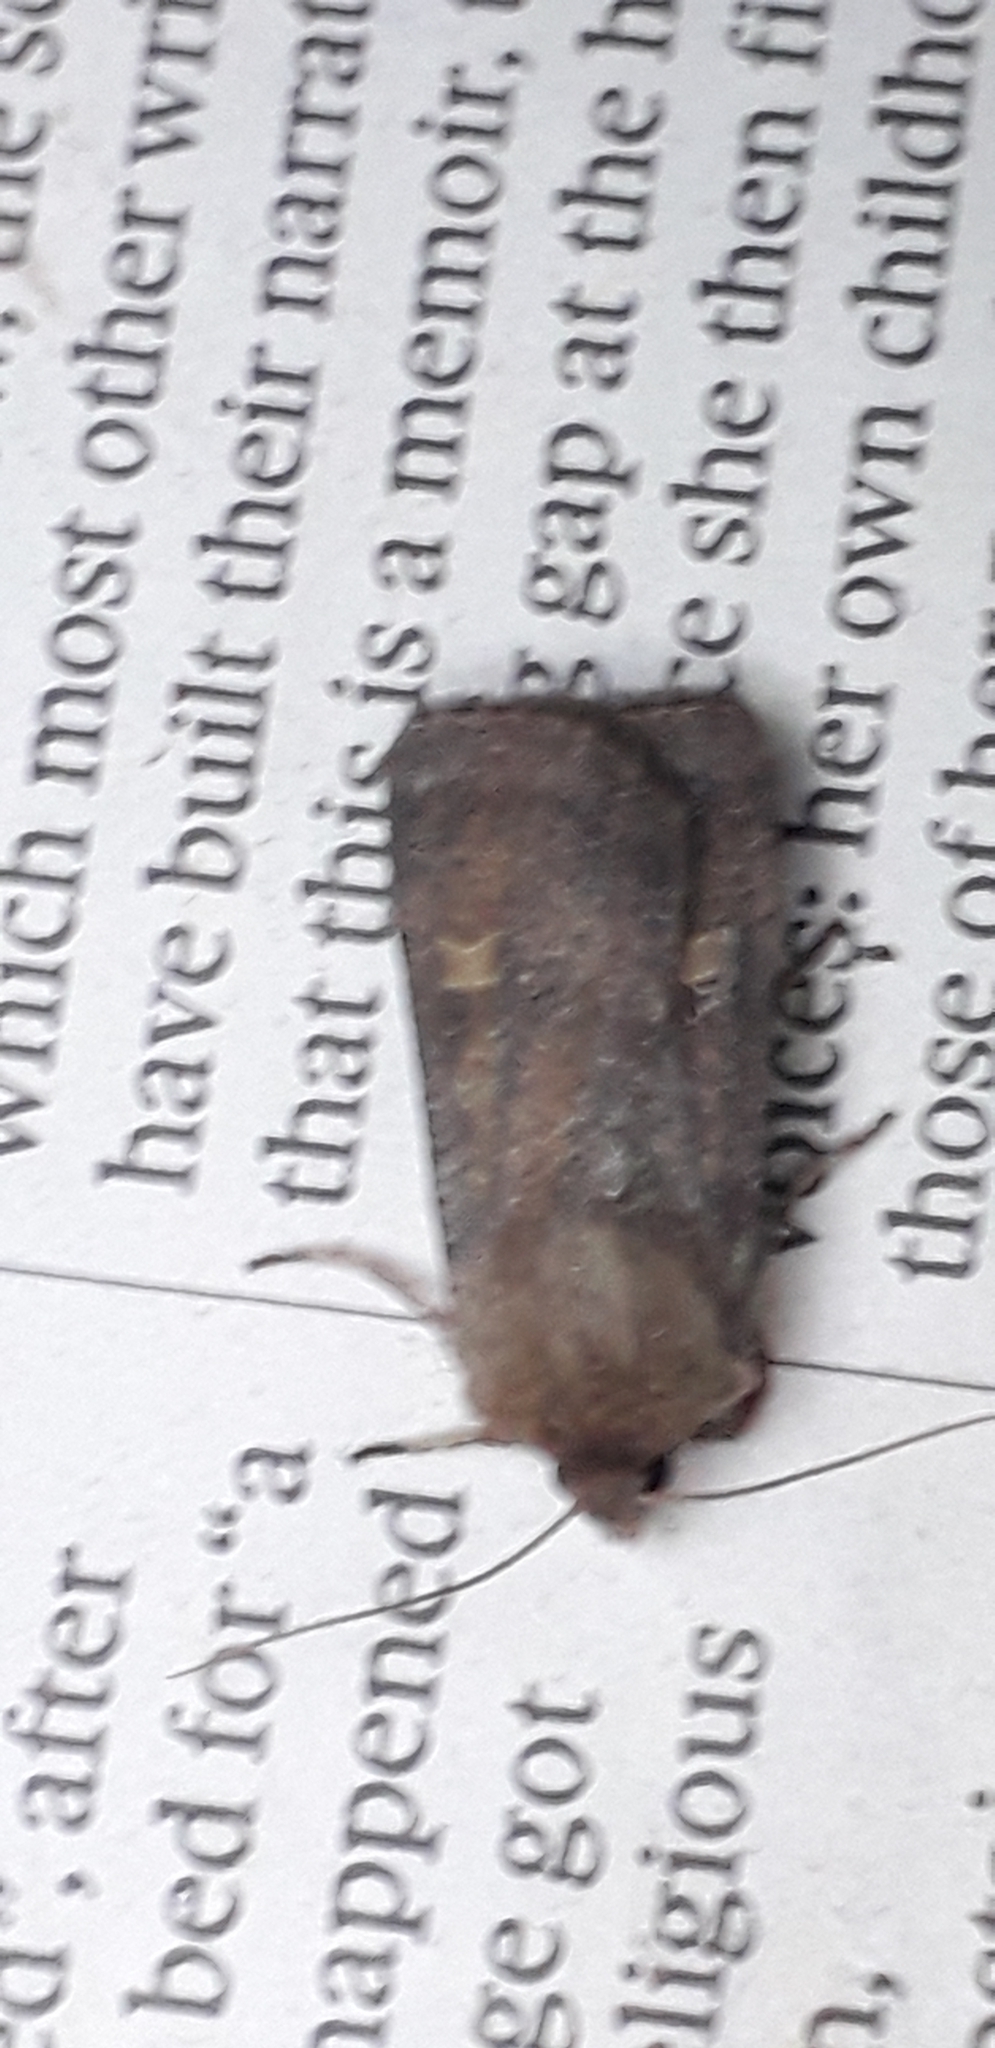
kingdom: Animalia
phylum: Arthropoda
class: Insecta
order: Lepidoptera
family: Noctuidae
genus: Xestia
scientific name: Xestia xanthographa
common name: Square-spot rustic
